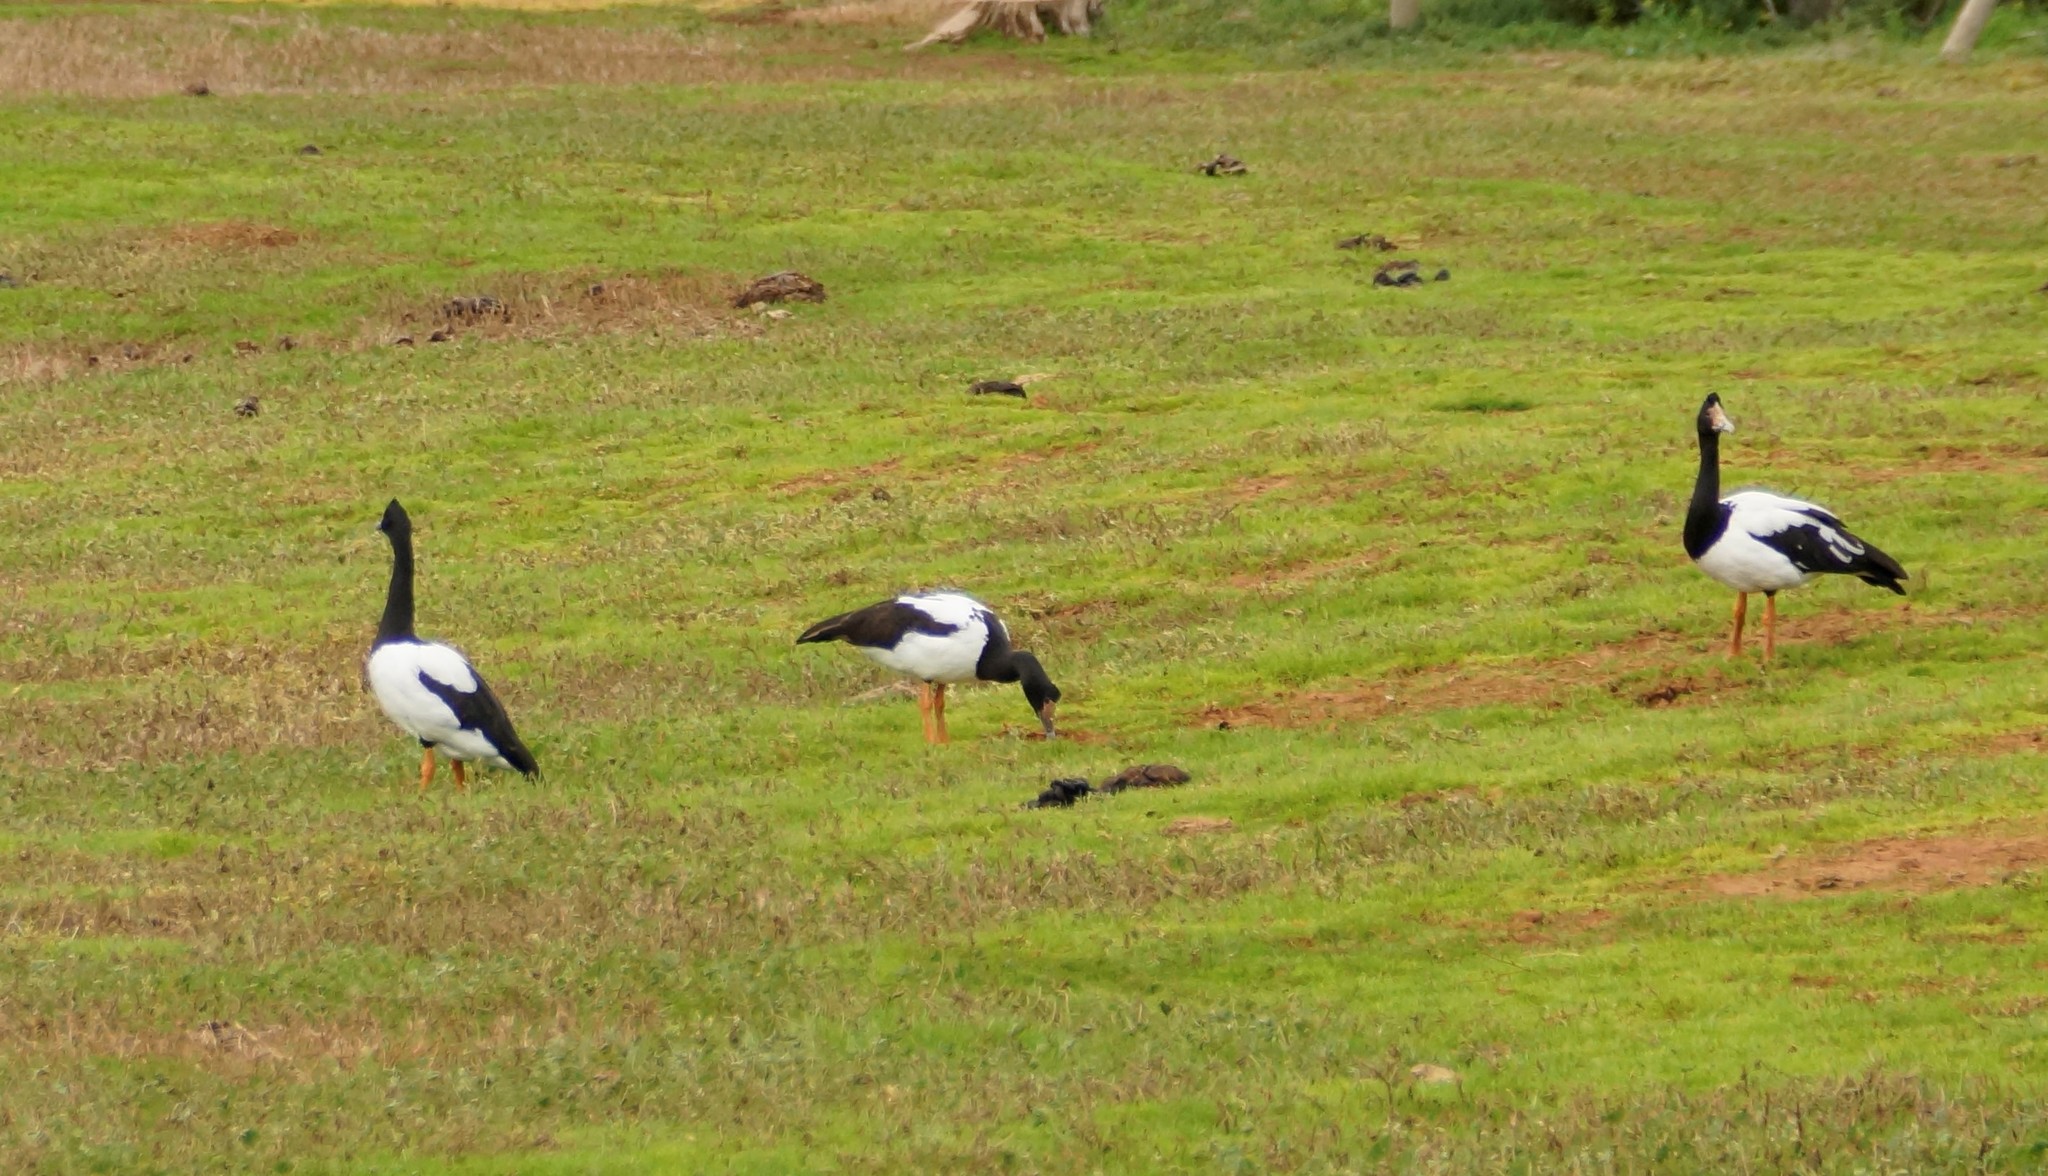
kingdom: Animalia
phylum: Chordata
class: Aves
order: Anseriformes
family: Anseranatidae
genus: Anseranas
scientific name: Anseranas semipalmata
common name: Magpie goose
